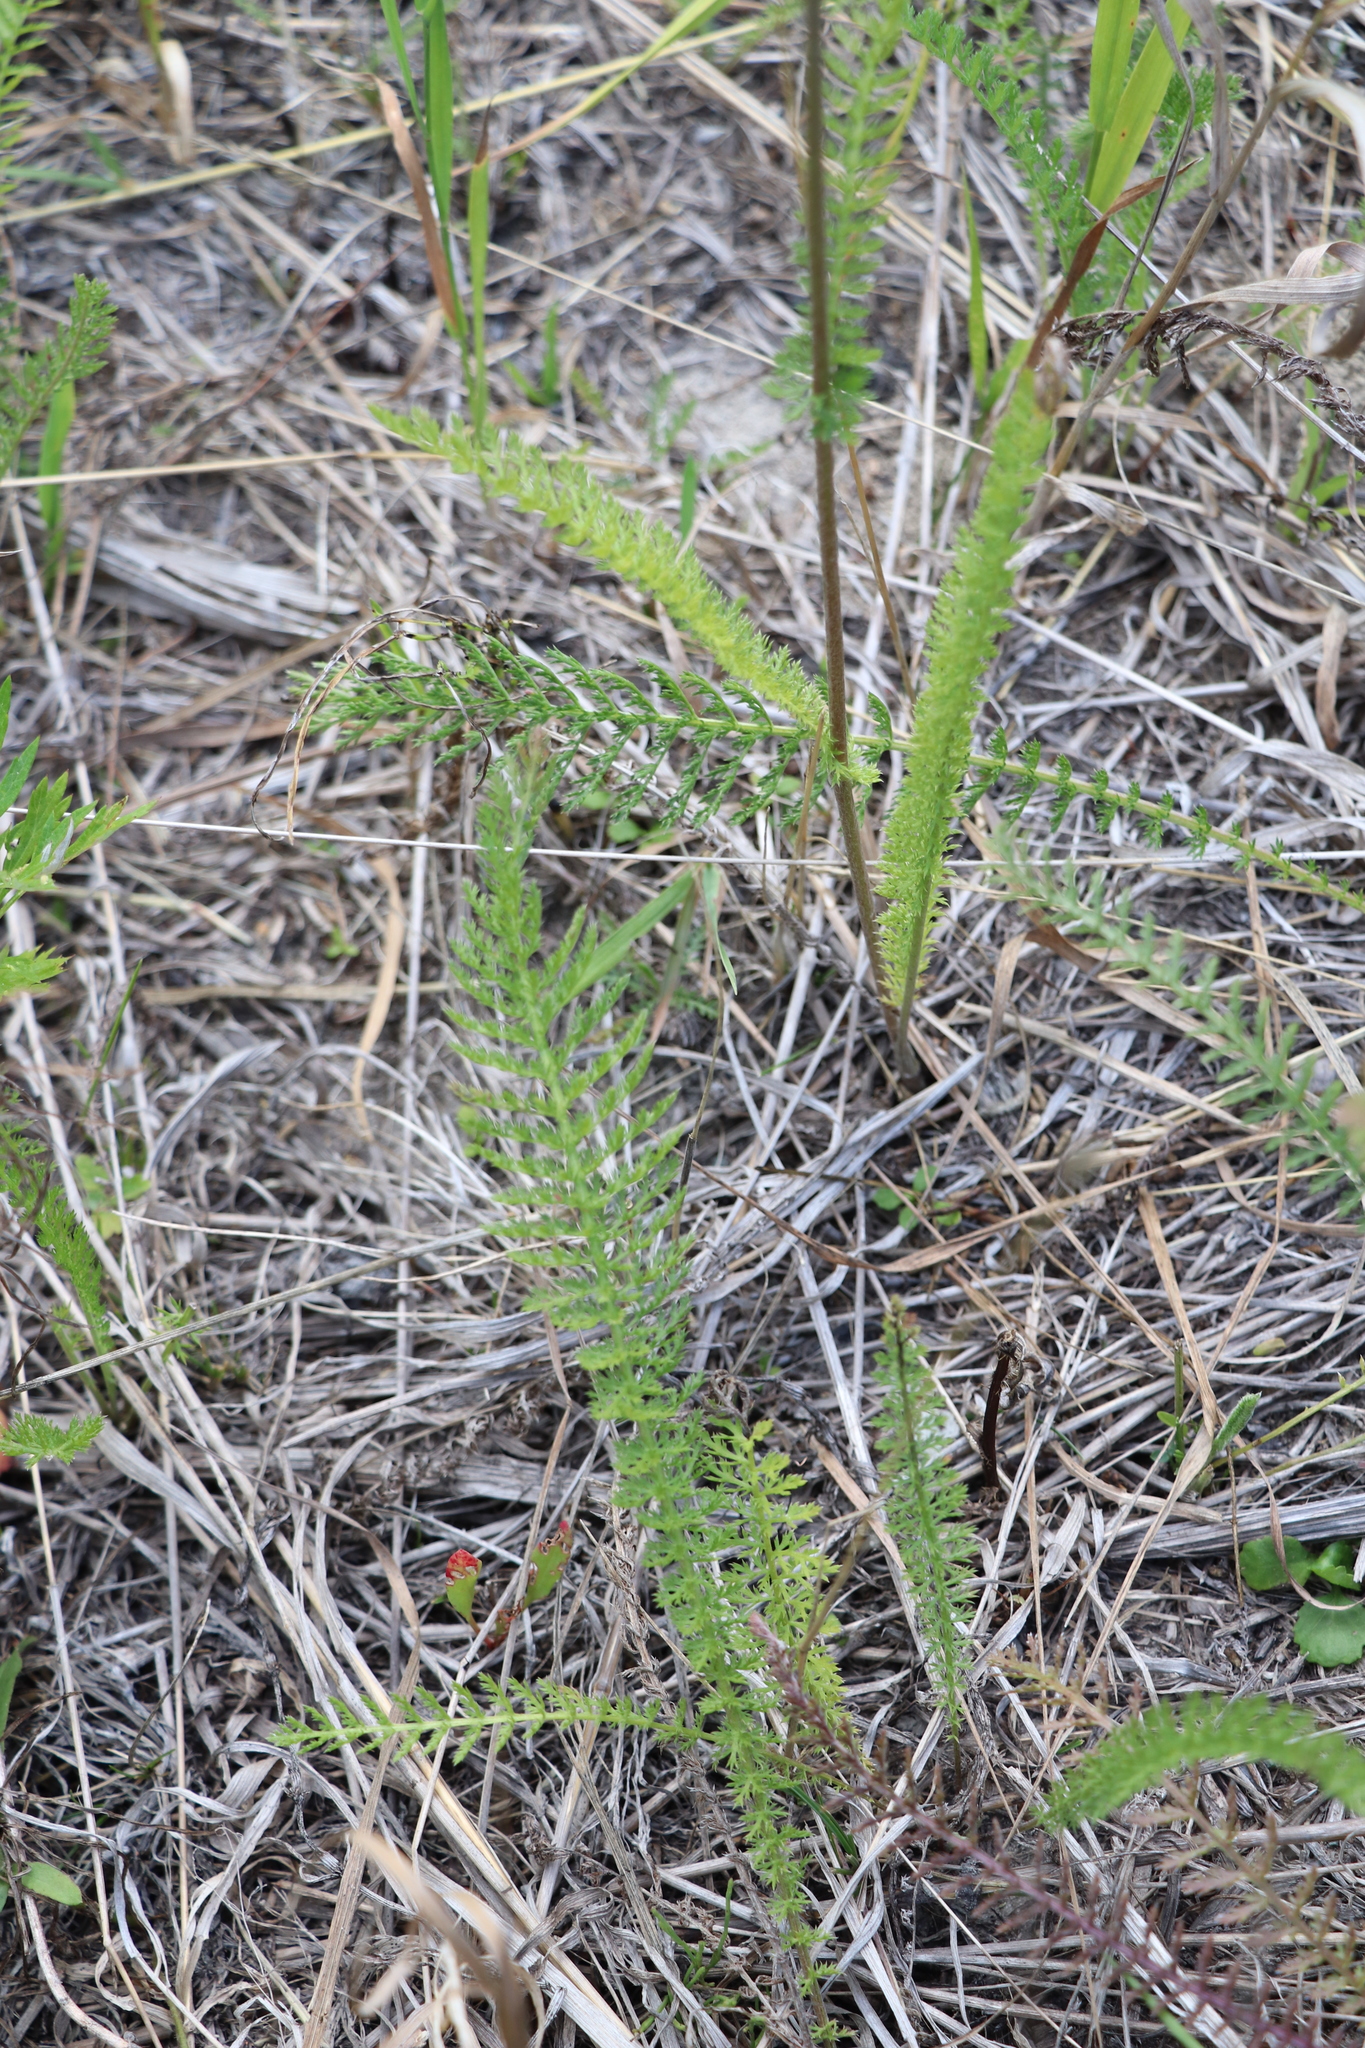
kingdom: Plantae
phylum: Tracheophyta
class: Magnoliopsida
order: Asterales
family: Asteraceae
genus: Achillea
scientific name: Achillea millefolium
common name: Yarrow
